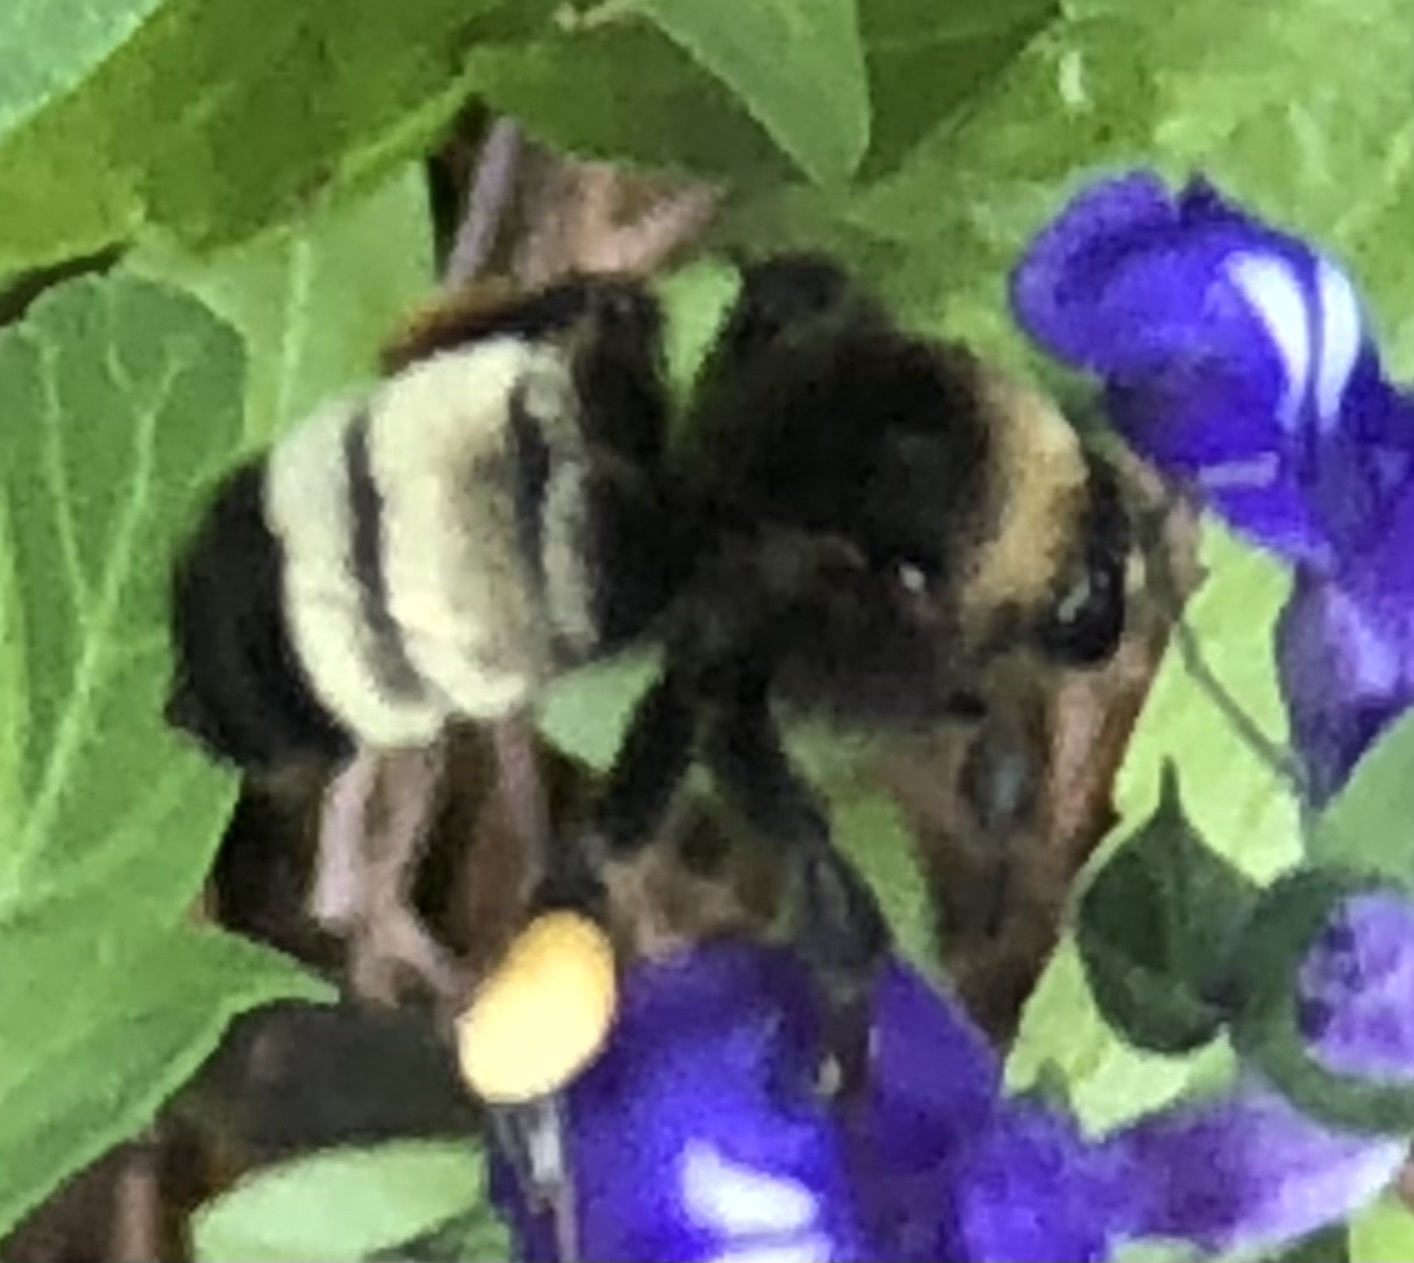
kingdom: Animalia
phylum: Arthropoda
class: Insecta
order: Hymenoptera
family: Apidae
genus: Bombus
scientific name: Bombus pensylvanicus
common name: Bumble bee
